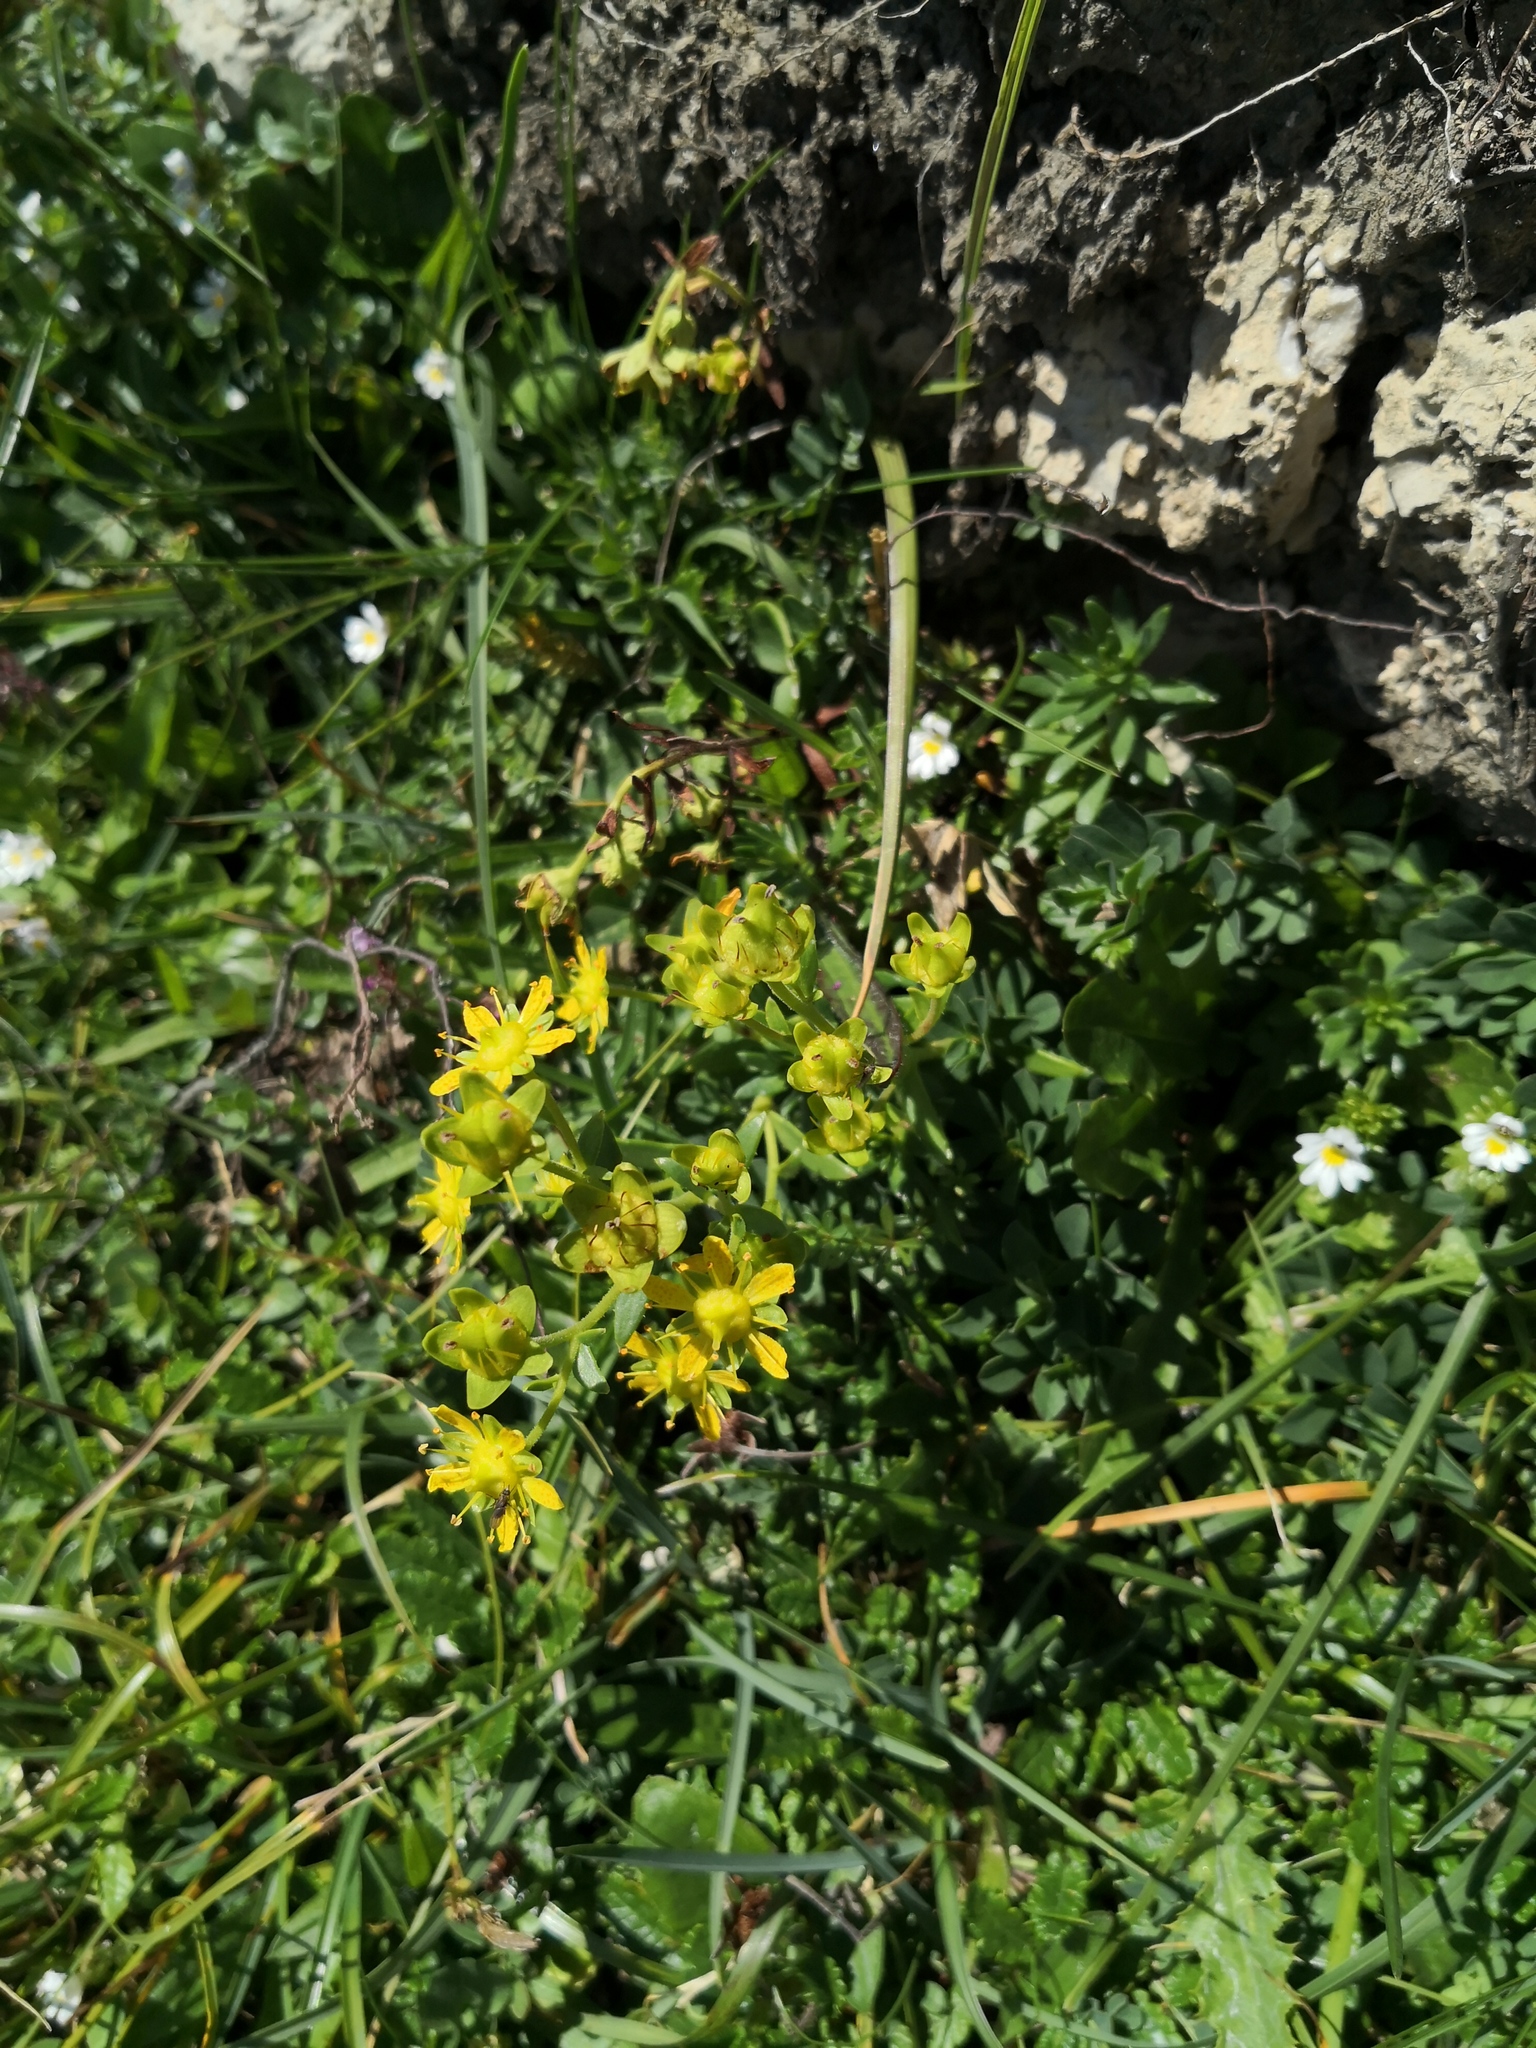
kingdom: Plantae
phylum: Tracheophyta
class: Magnoliopsida
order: Saxifragales
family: Saxifragaceae
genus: Saxifraga
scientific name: Saxifraga aizoides
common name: Yellow mountain saxifrage
